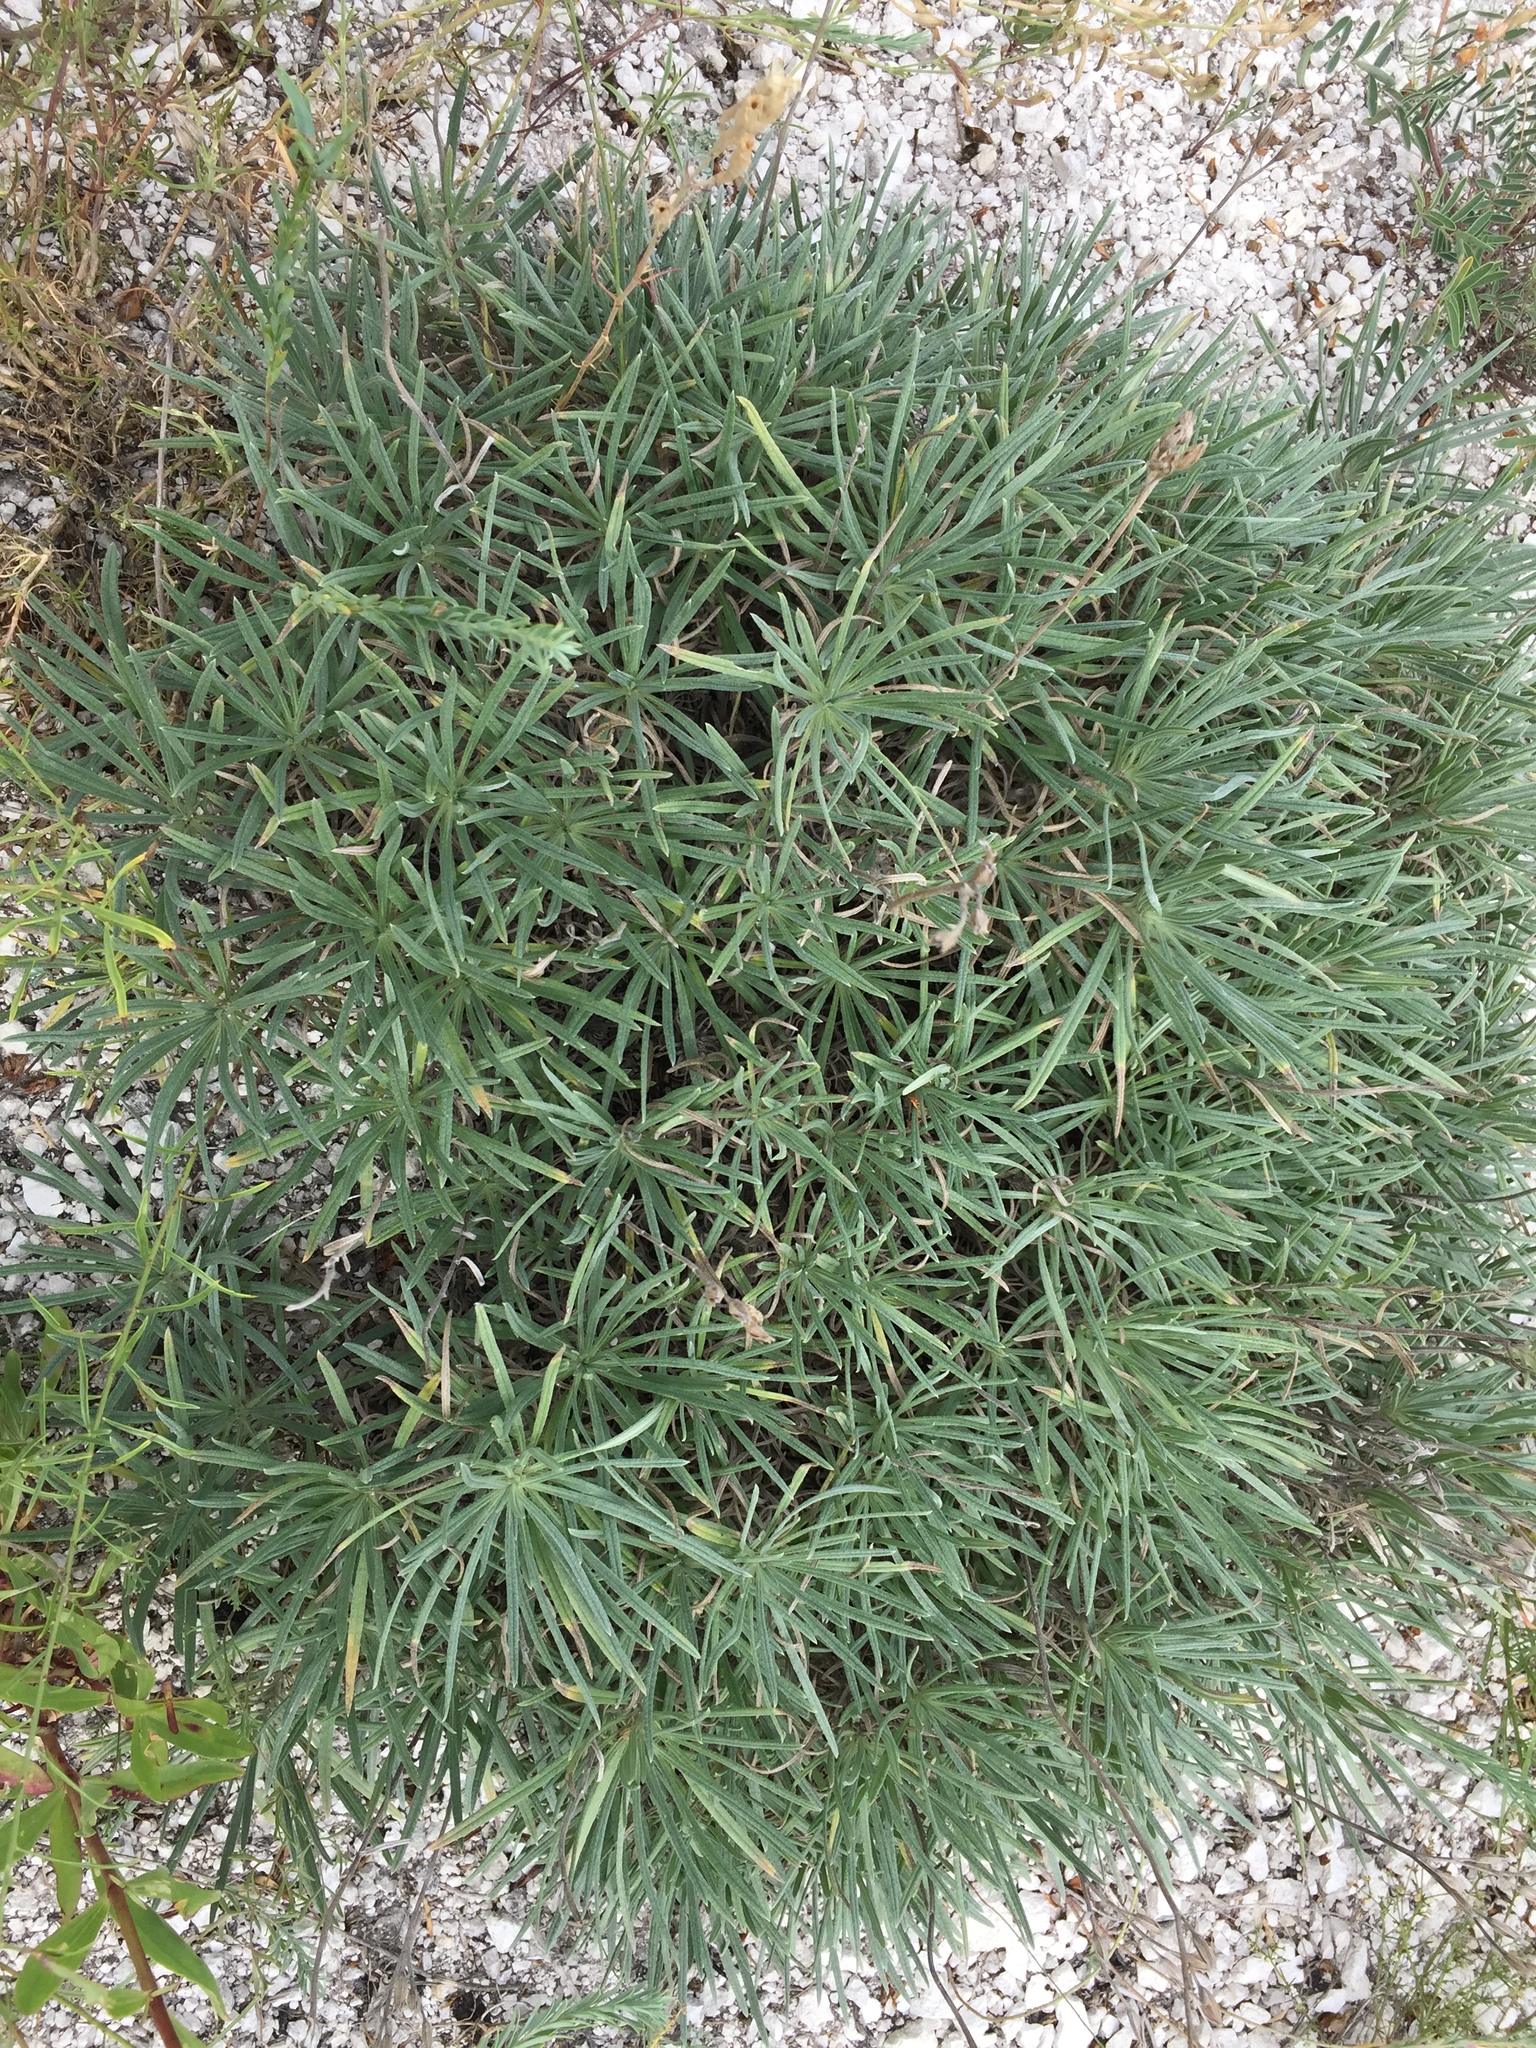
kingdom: Plantae
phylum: Tracheophyta
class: Magnoliopsida
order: Boraginales
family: Boraginaceae
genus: Onosma
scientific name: Onosma simplicissima
